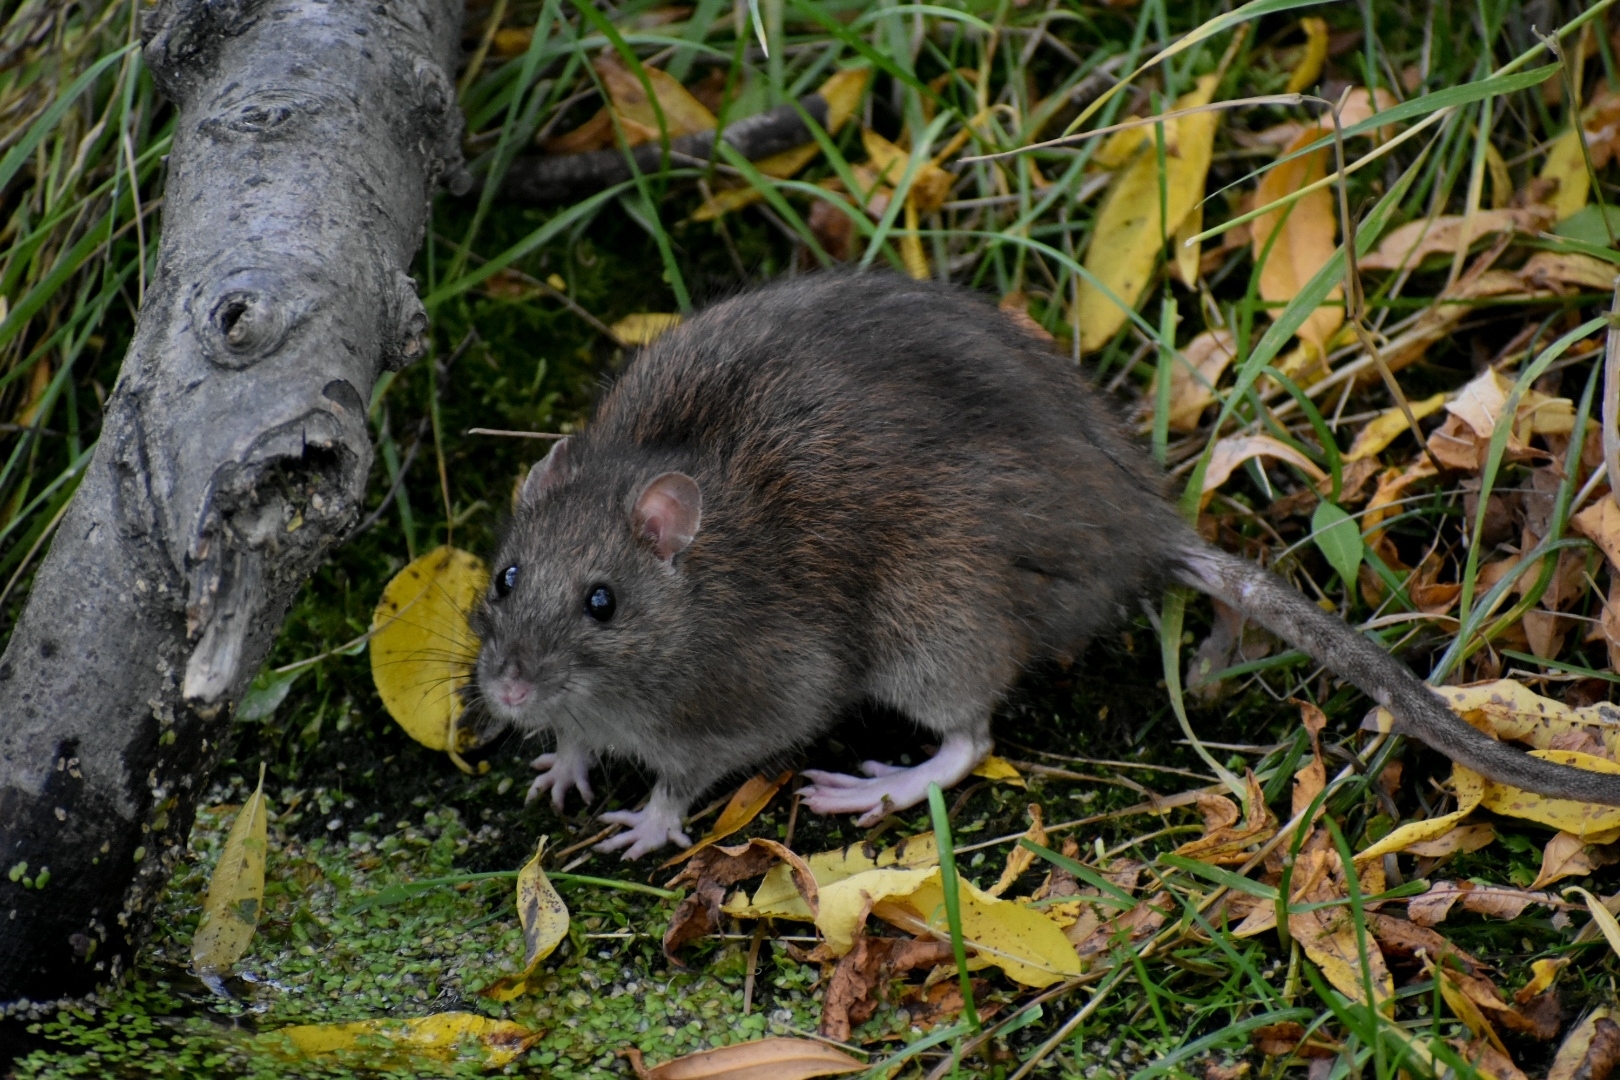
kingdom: Animalia
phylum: Chordata
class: Mammalia
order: Rodentia
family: Muridae
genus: Rattus
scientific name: Rattus norvegicus
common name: Brown rat
